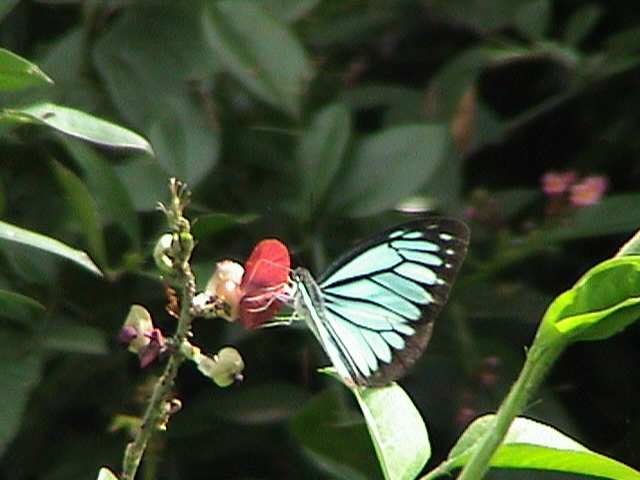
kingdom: Animalia
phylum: Arthropoda
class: Insecta
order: Lepidoptera
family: Pieridae
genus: Pareronia
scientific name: Pareronia hippia
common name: Indian wanderer
